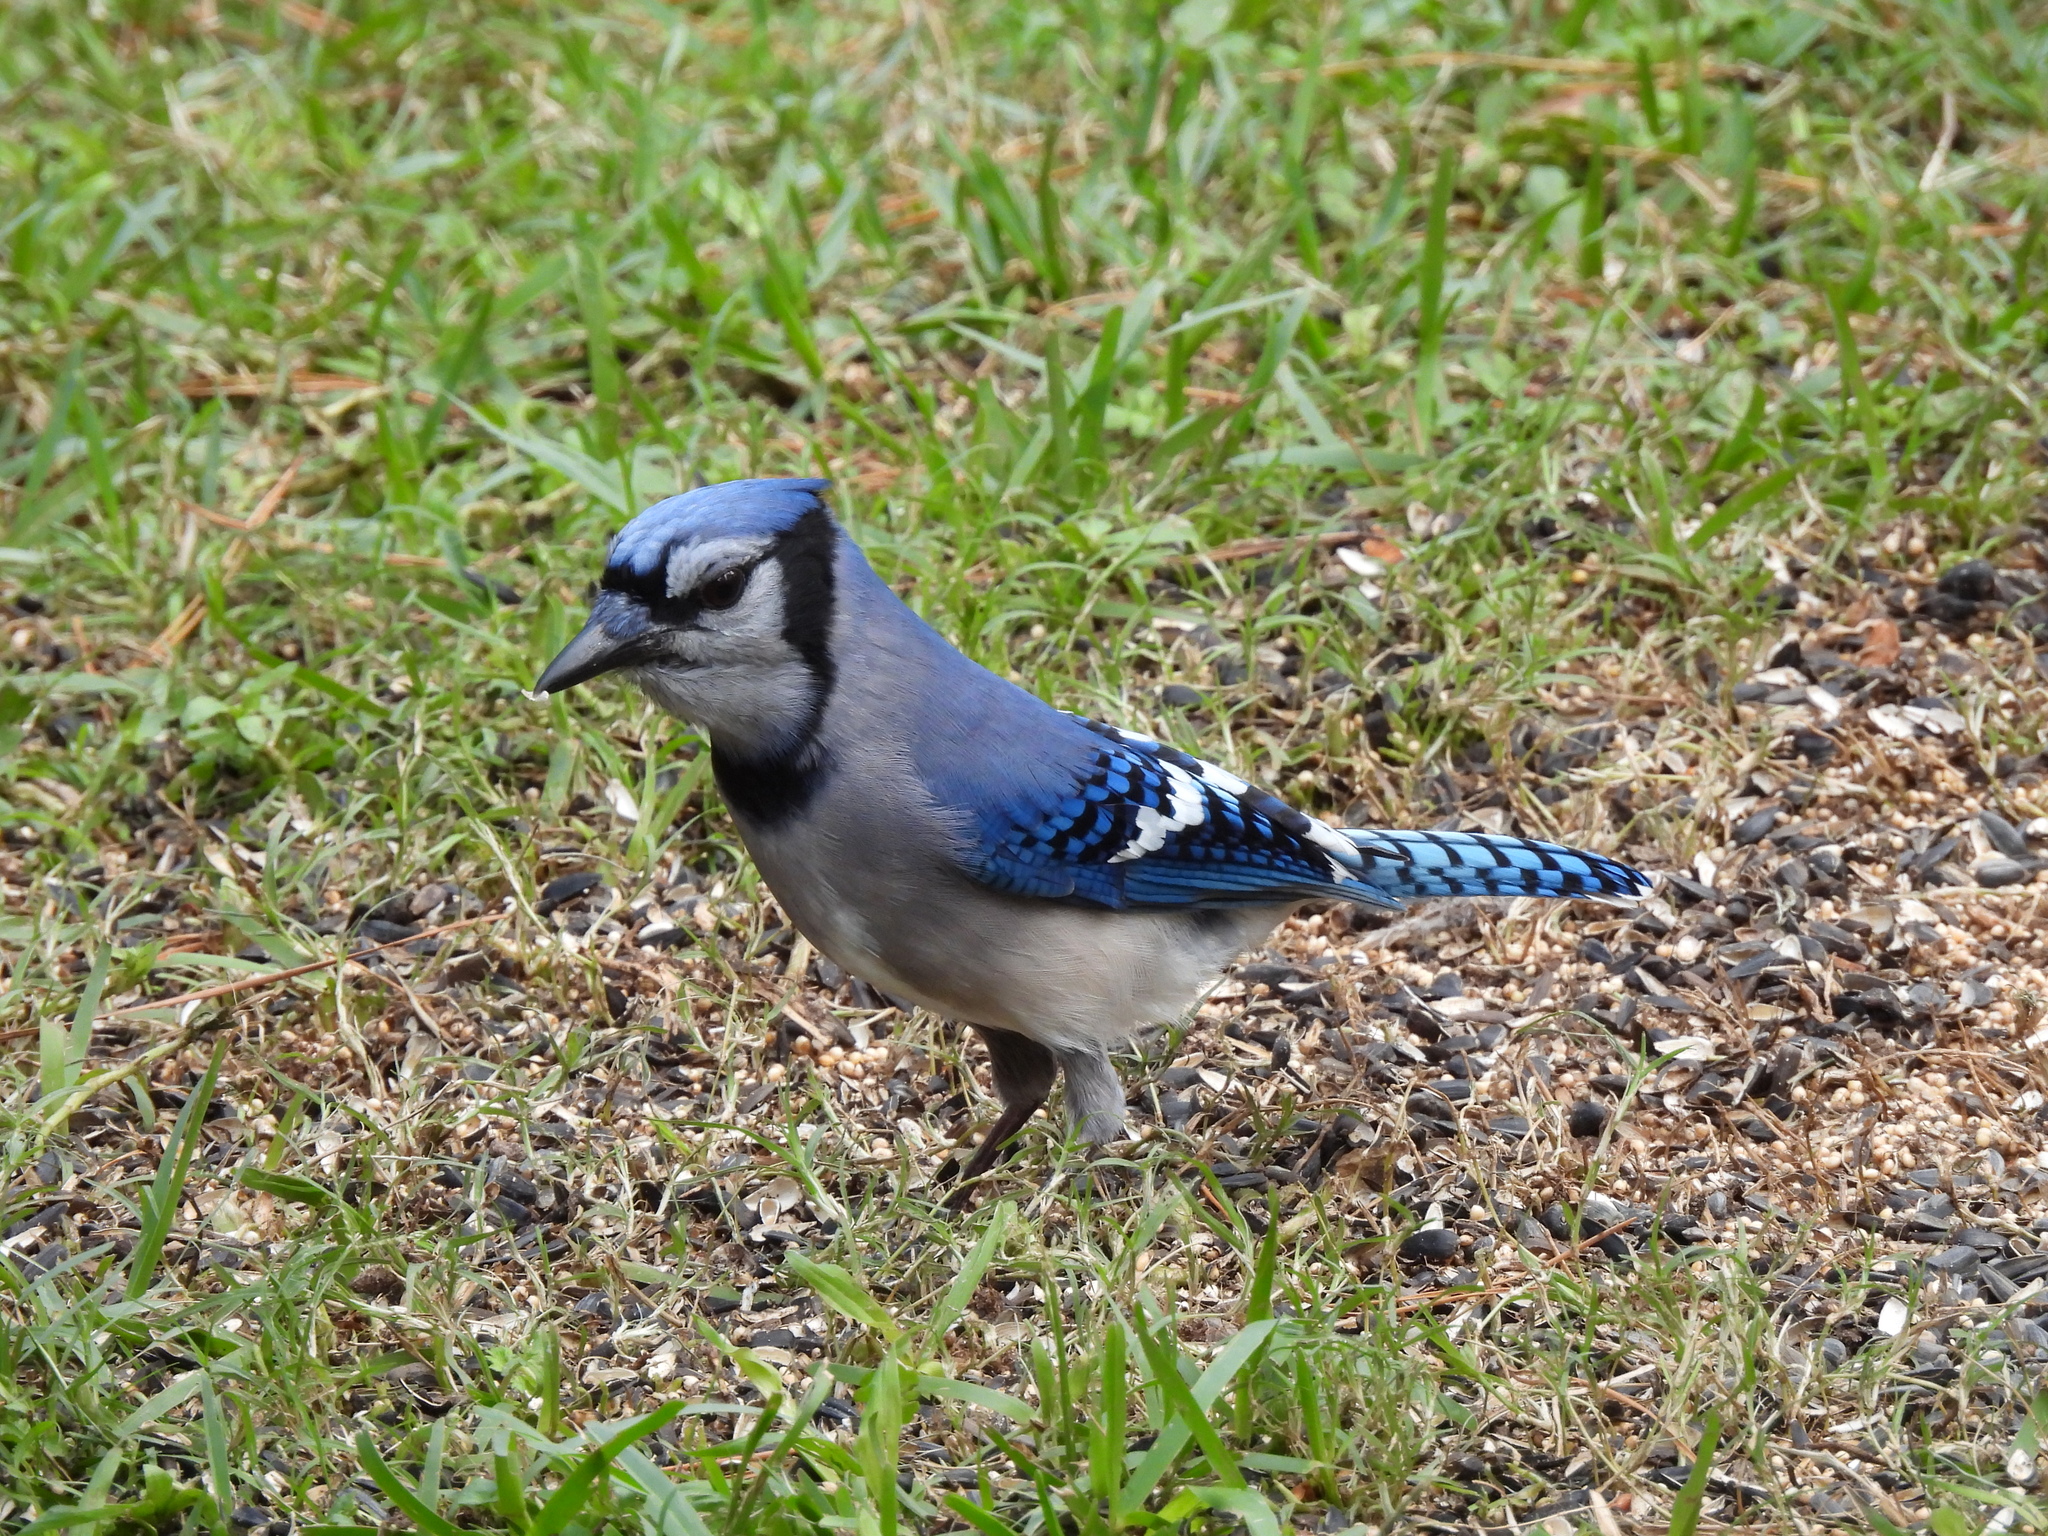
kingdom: Animalia
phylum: Chordata
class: Aves
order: Passeriformes
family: Corvidae
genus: Cyanocitta
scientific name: Cyanocitta cristata
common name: Blue jay
